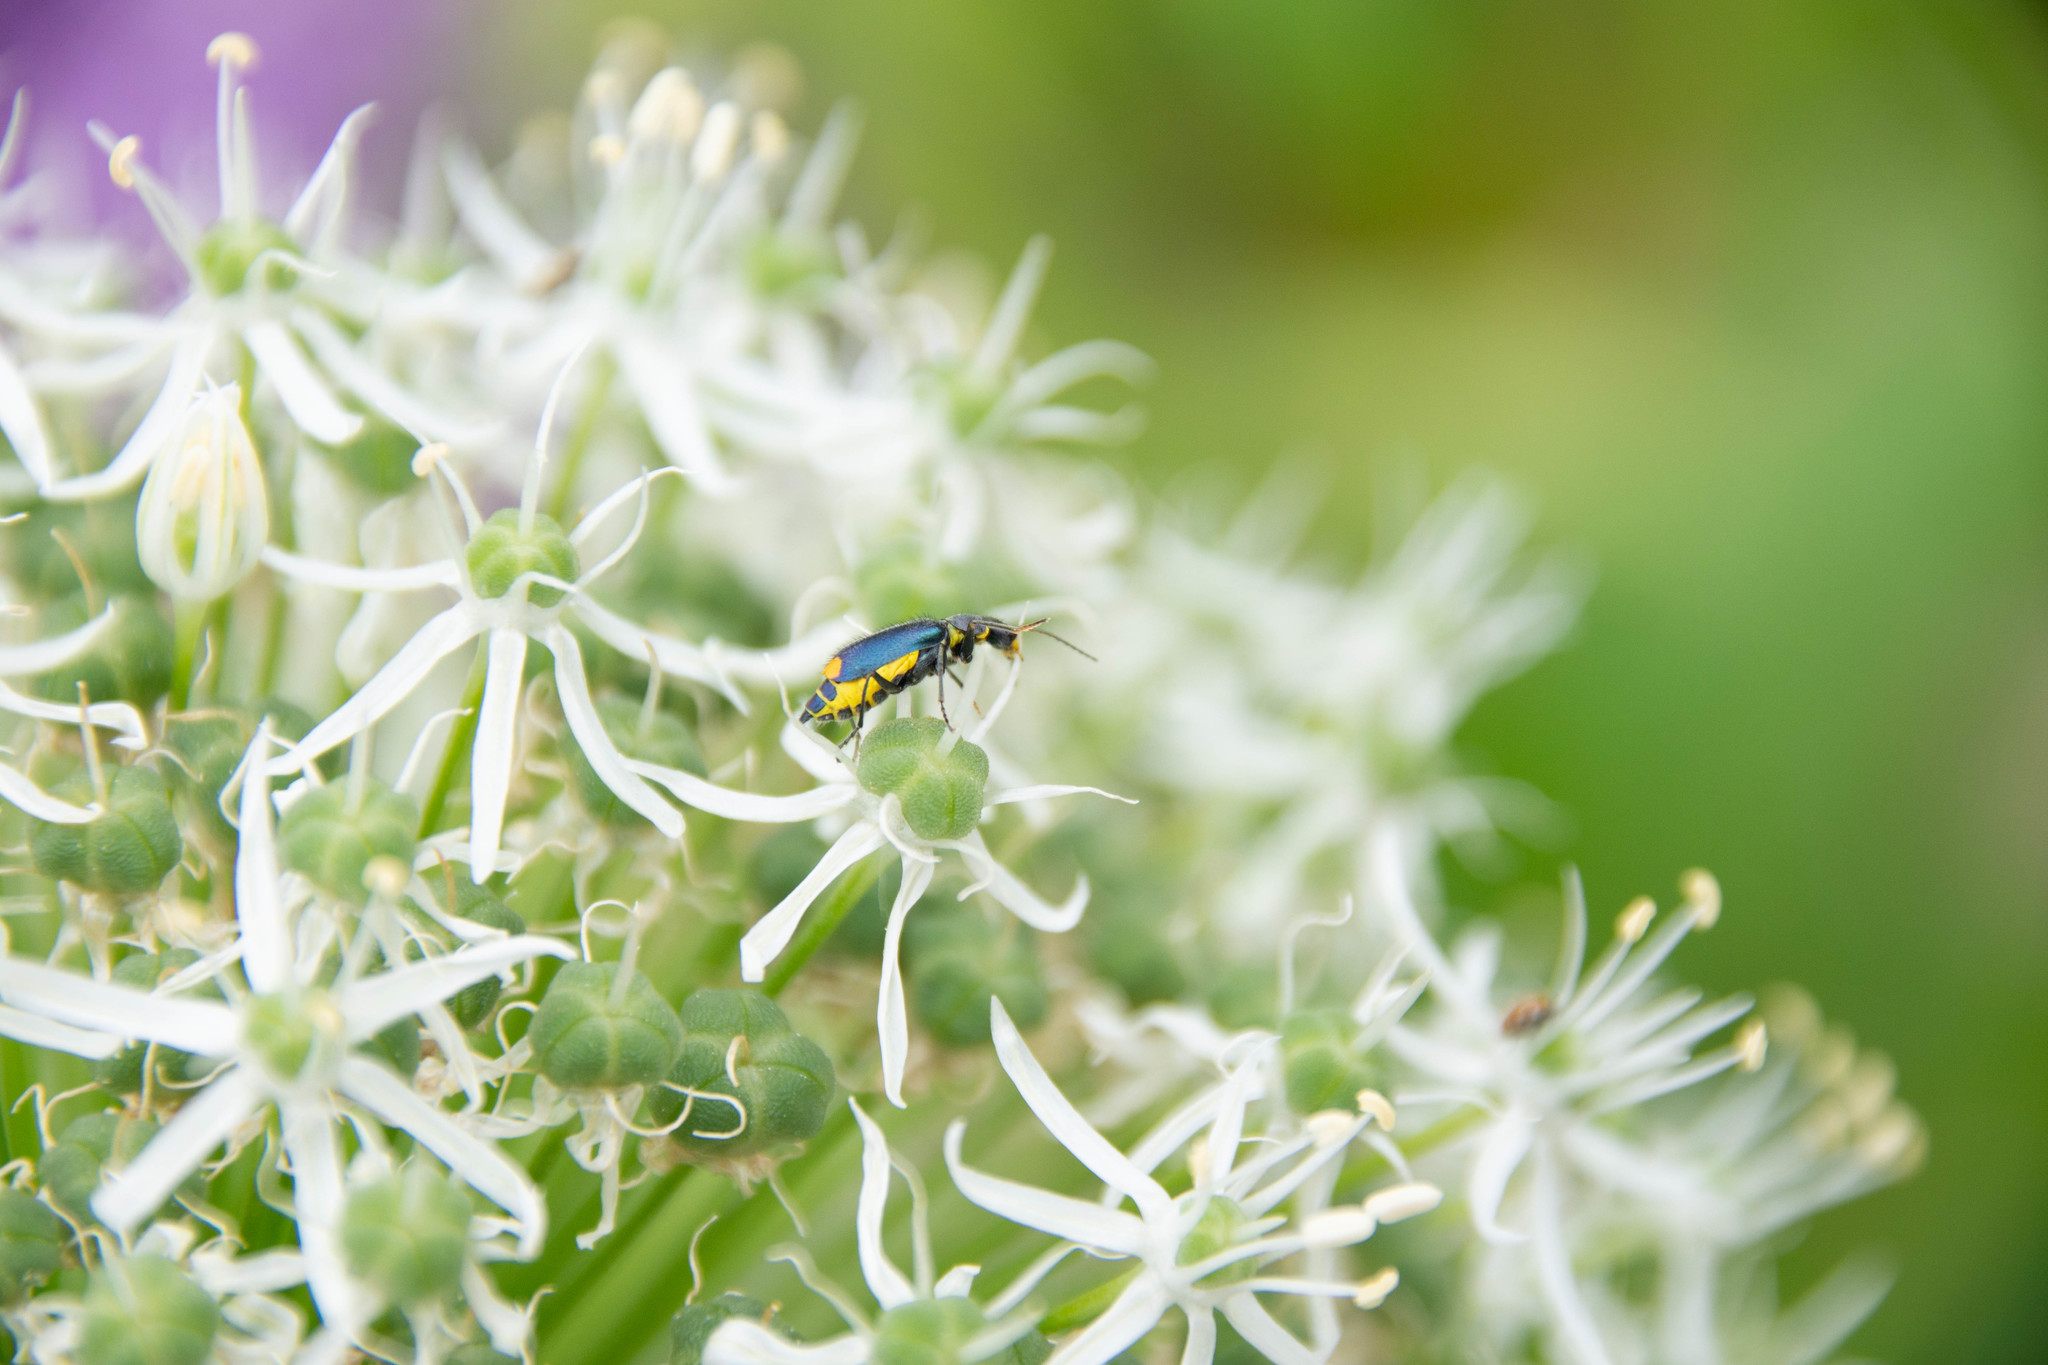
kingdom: Animalia
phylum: Arthropoda
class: Insecta
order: Coleoptera
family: Malachiidae
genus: Clanoptilus
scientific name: Clanoptilus marginellus
